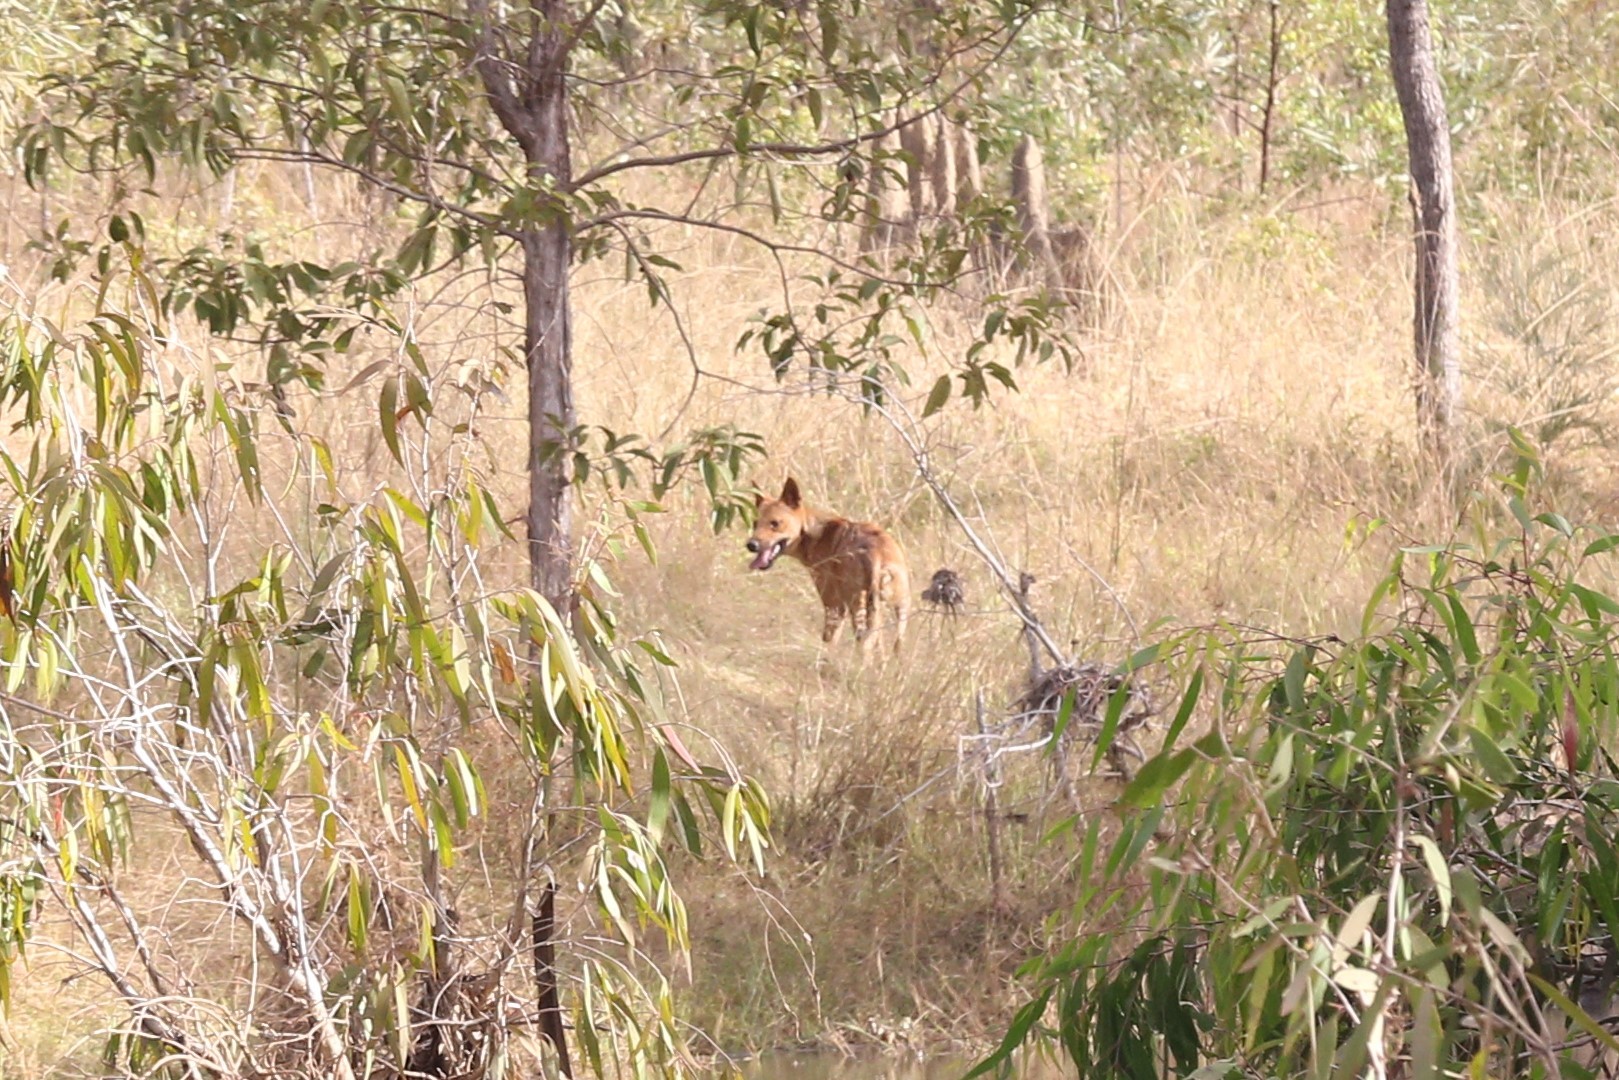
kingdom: Animalia
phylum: Chordata
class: Mammalia
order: Carnivora
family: Canidae
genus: Canis
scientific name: Canis lupus
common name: Gray wolf
